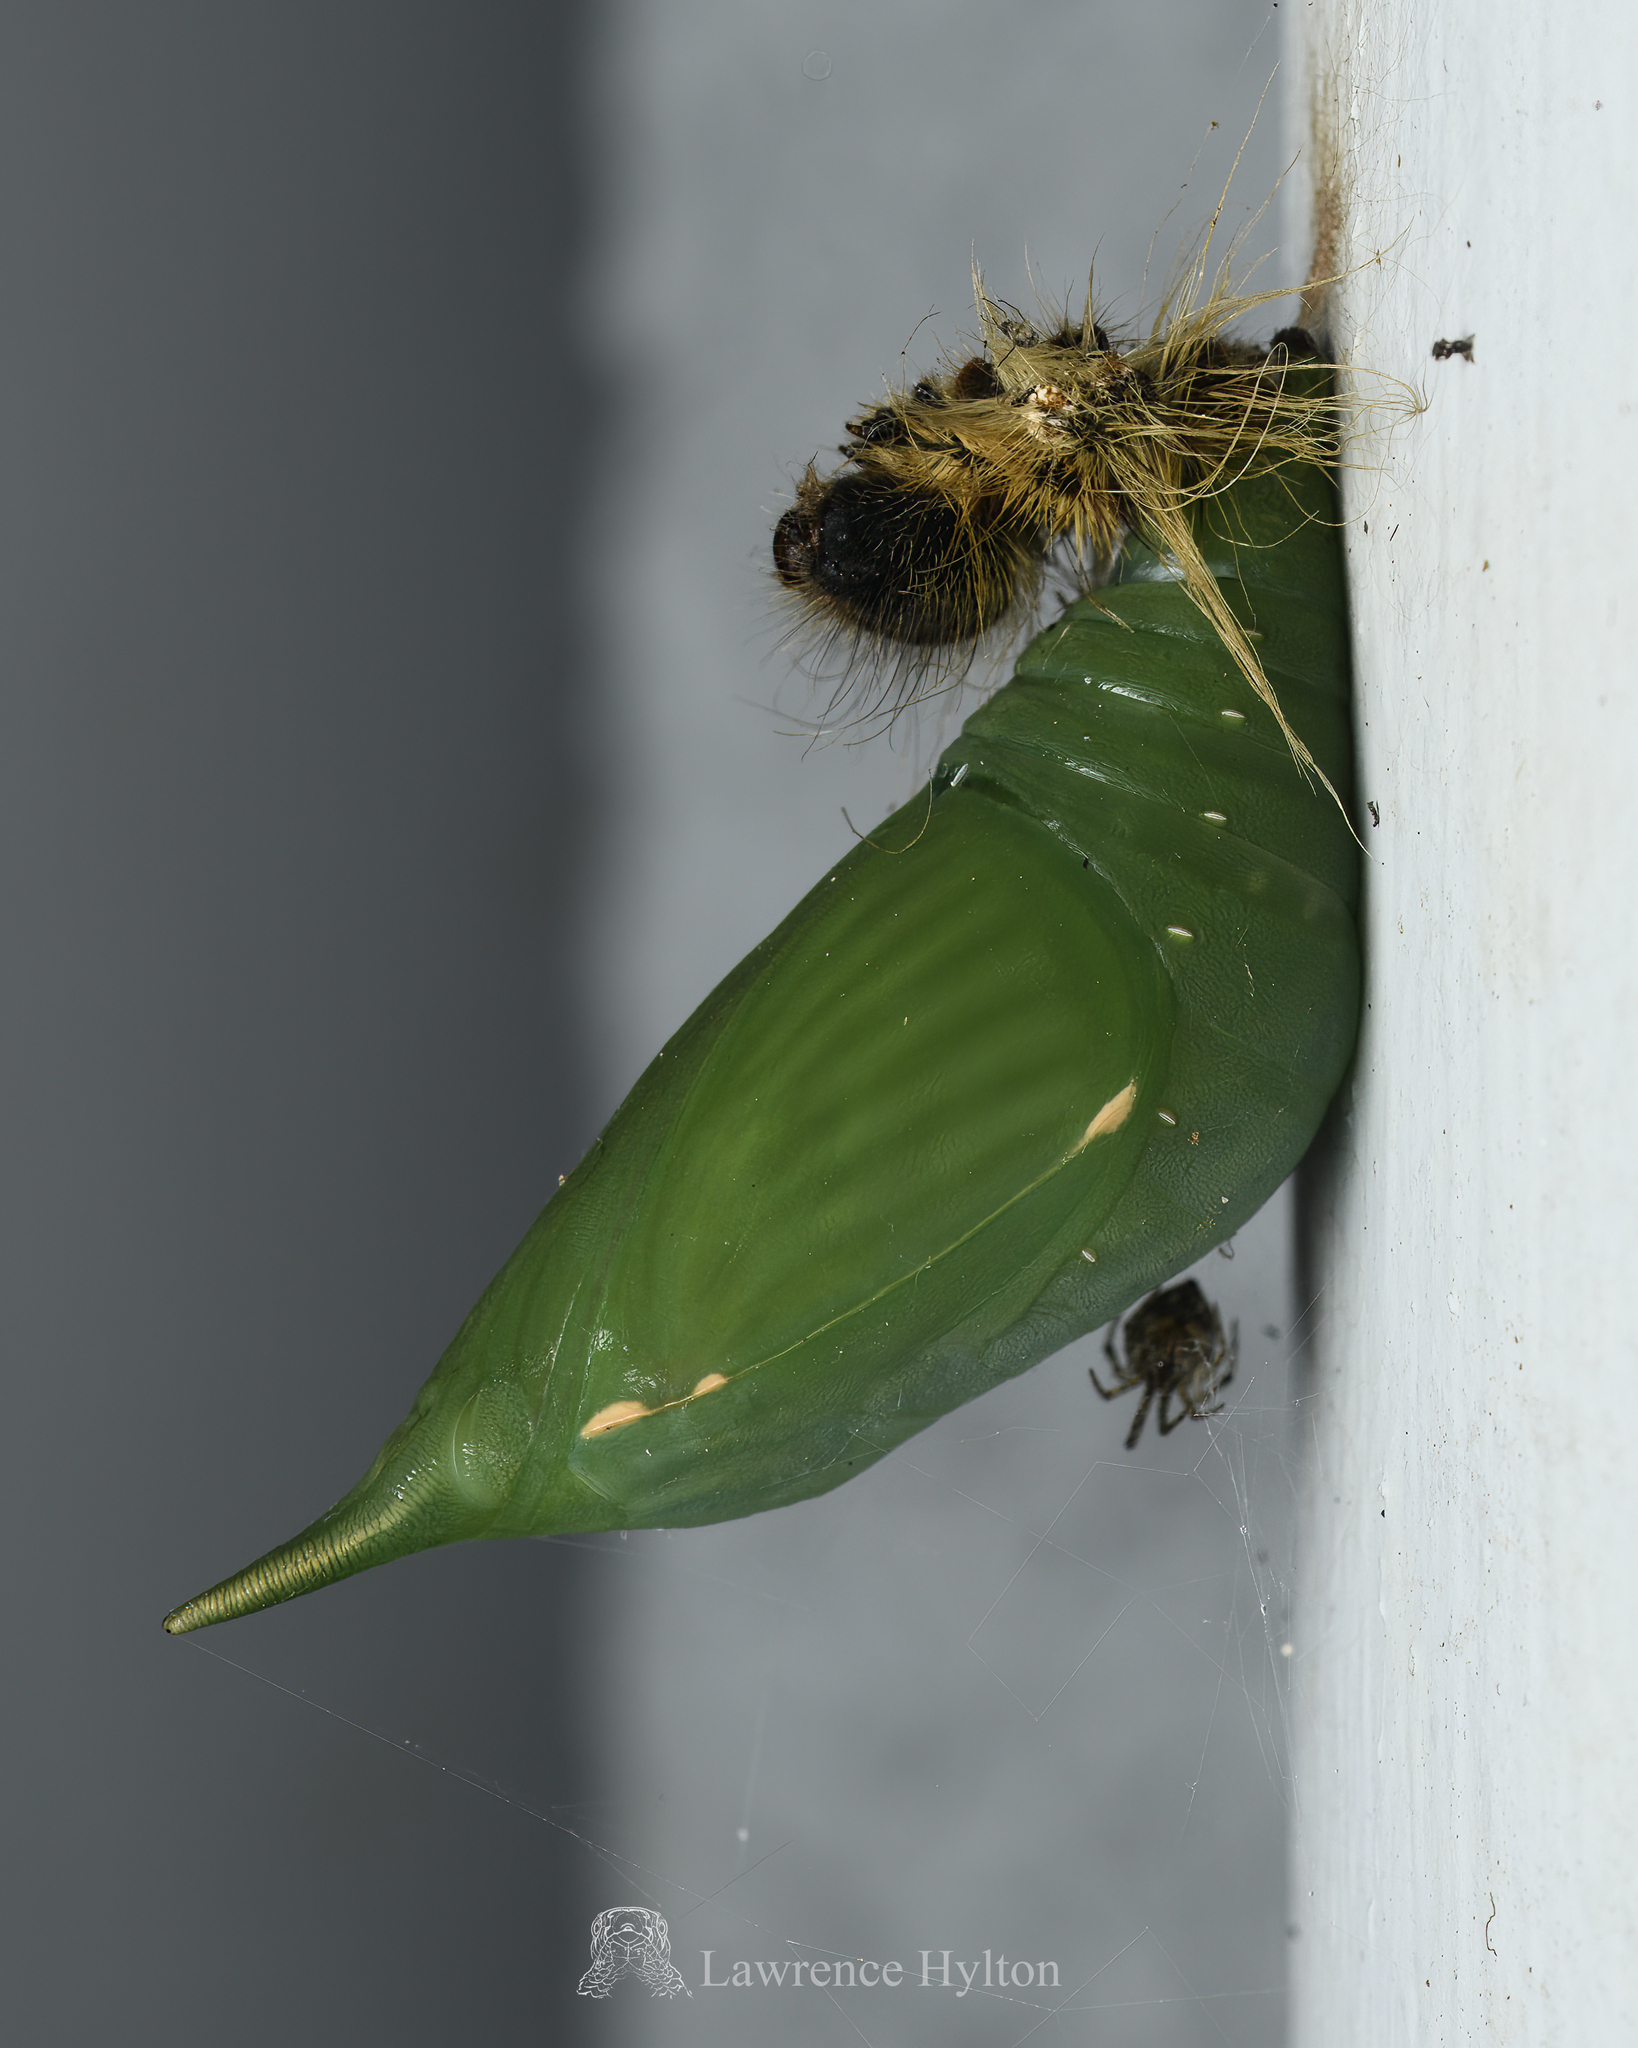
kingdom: Animalia
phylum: Arthropoda
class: Insecta
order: Lepidoptera
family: Nymphalidae
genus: Discophora
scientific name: Discophora sondaica
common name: Common duffer
